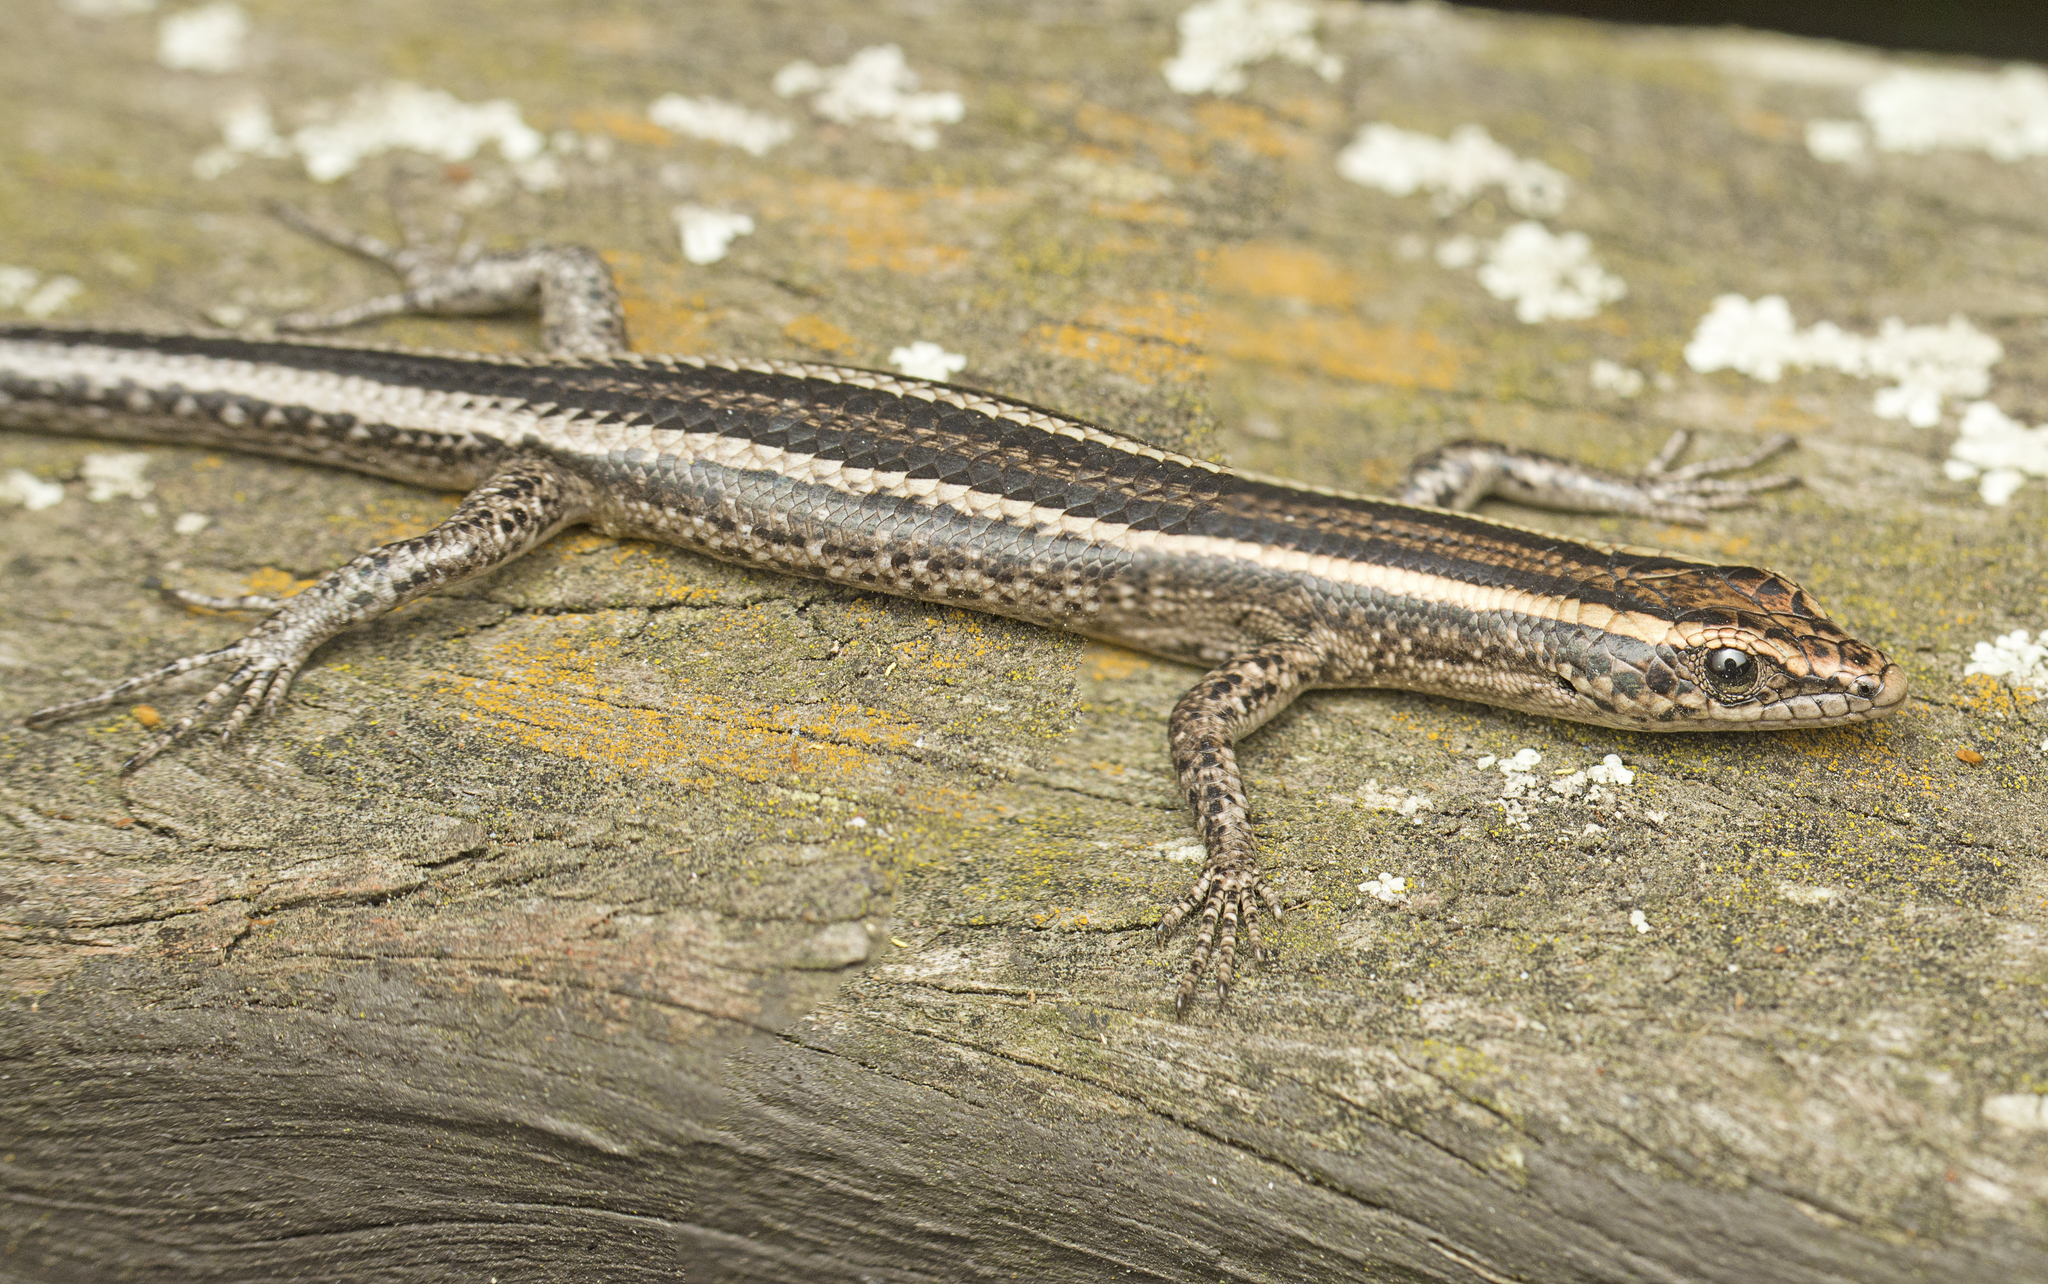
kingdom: Animalia
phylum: Chordata
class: Squamata
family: Scincidae
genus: Cryptoblepharus
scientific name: Cryptoblepharus pulcher
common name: Elegant snake-eyed skink
